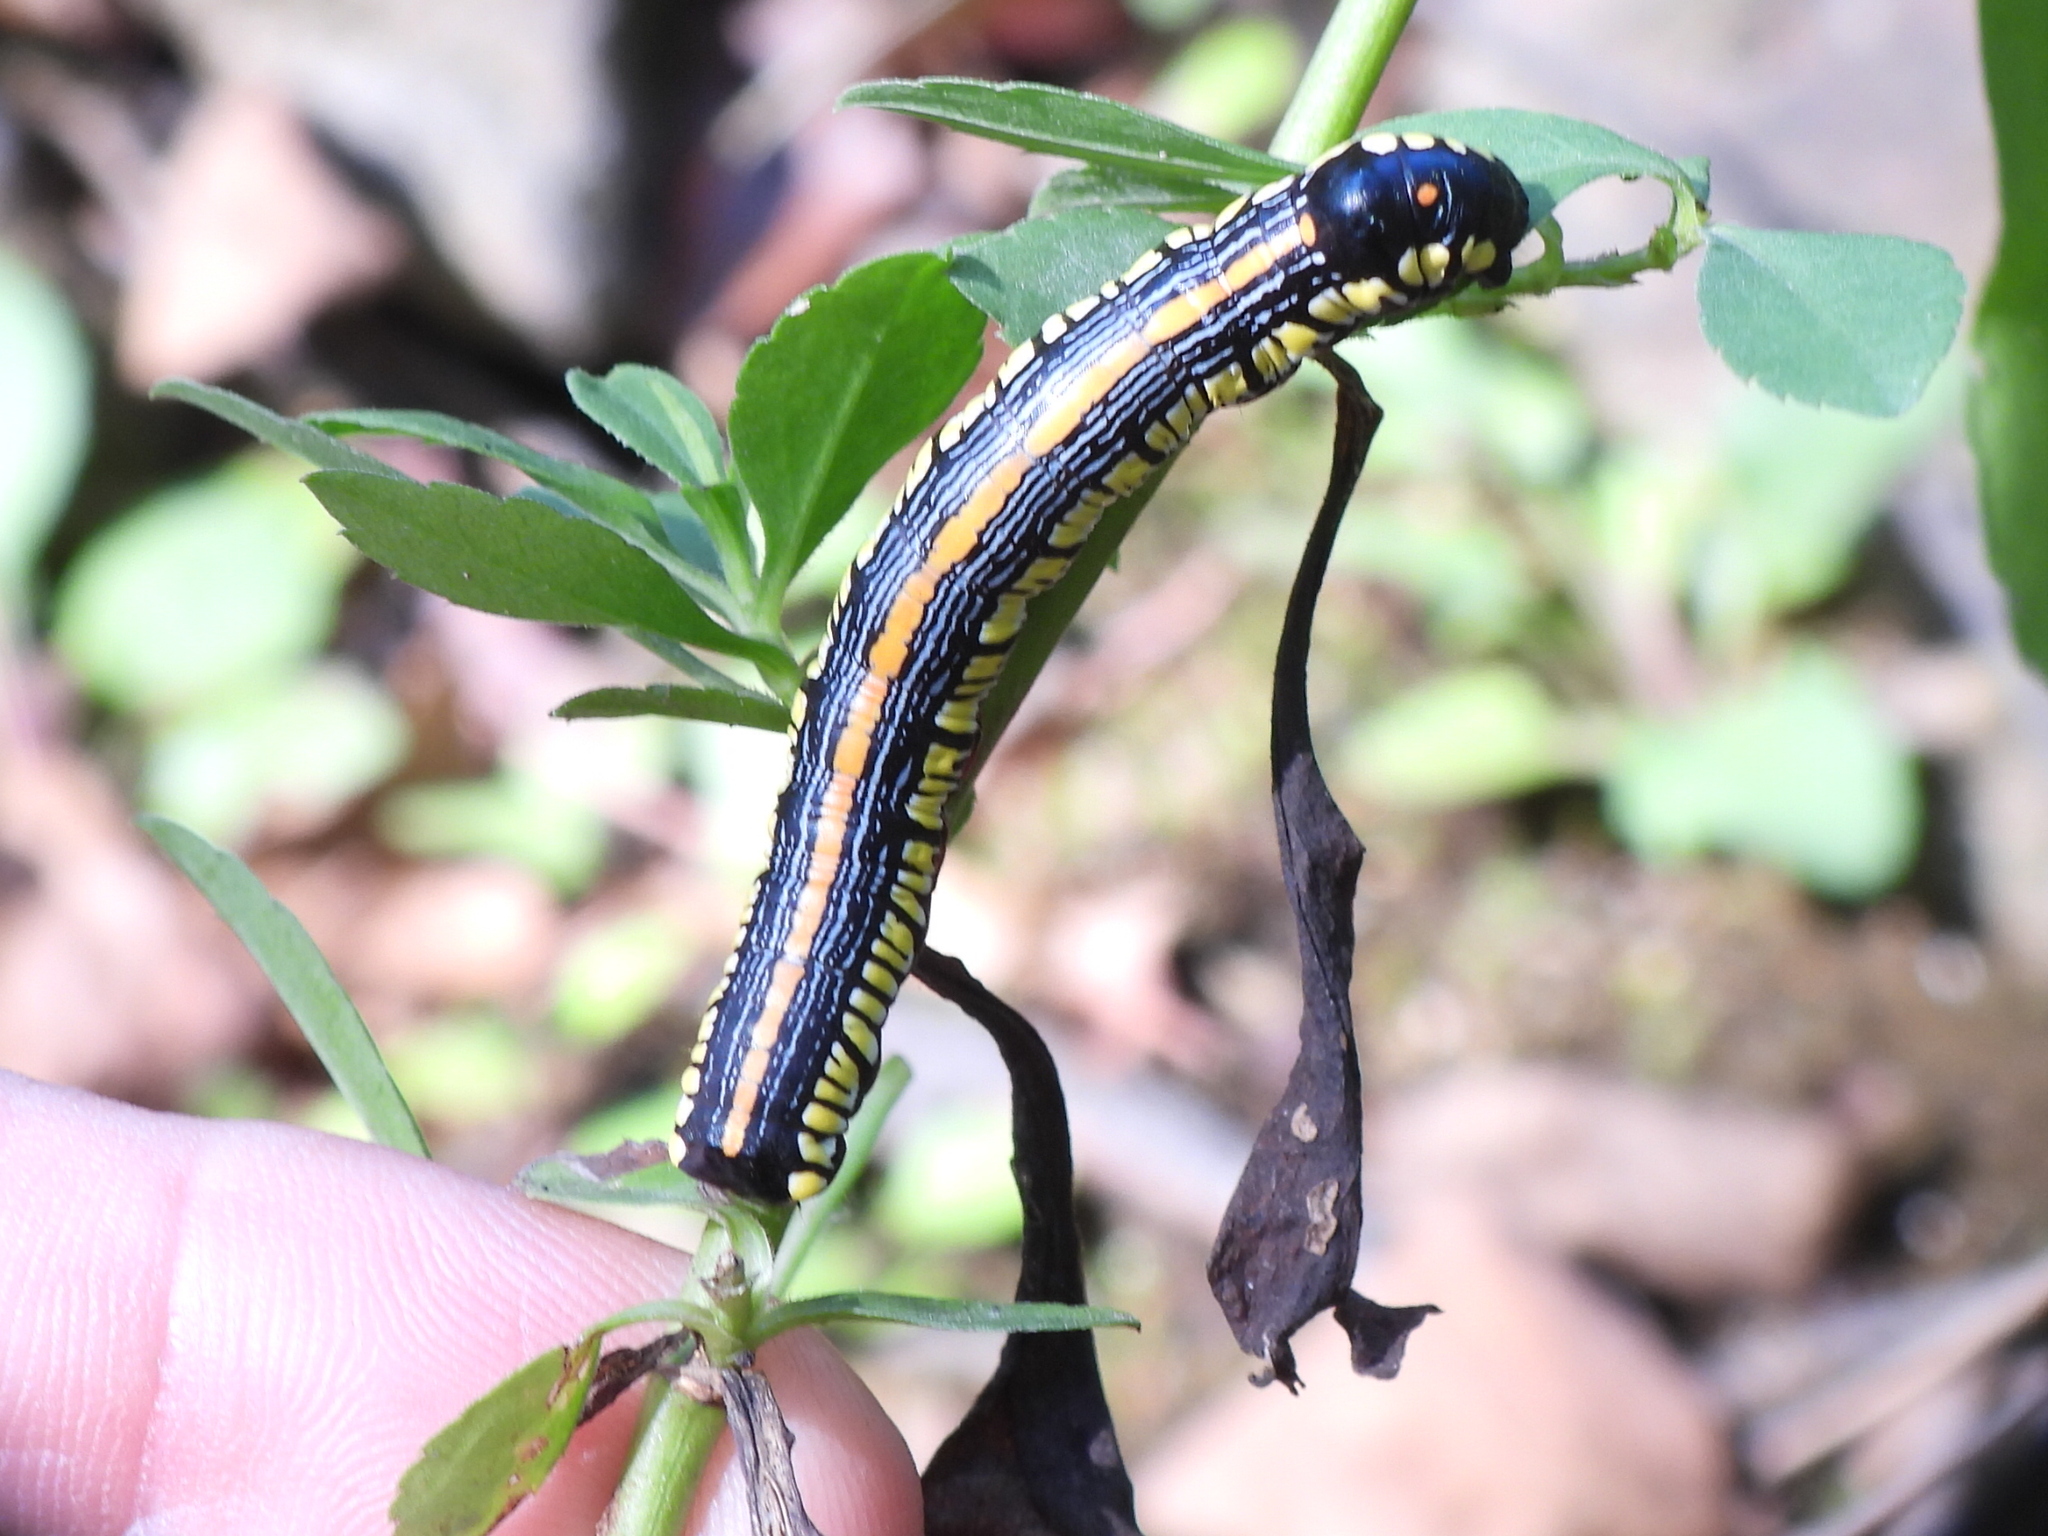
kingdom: Animalia
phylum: Arthropoda
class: Insecta
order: Lepidoptera
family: Noctuidae
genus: Cucullia
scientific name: Cucullia convexipennis
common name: Brown-hooded owlet
